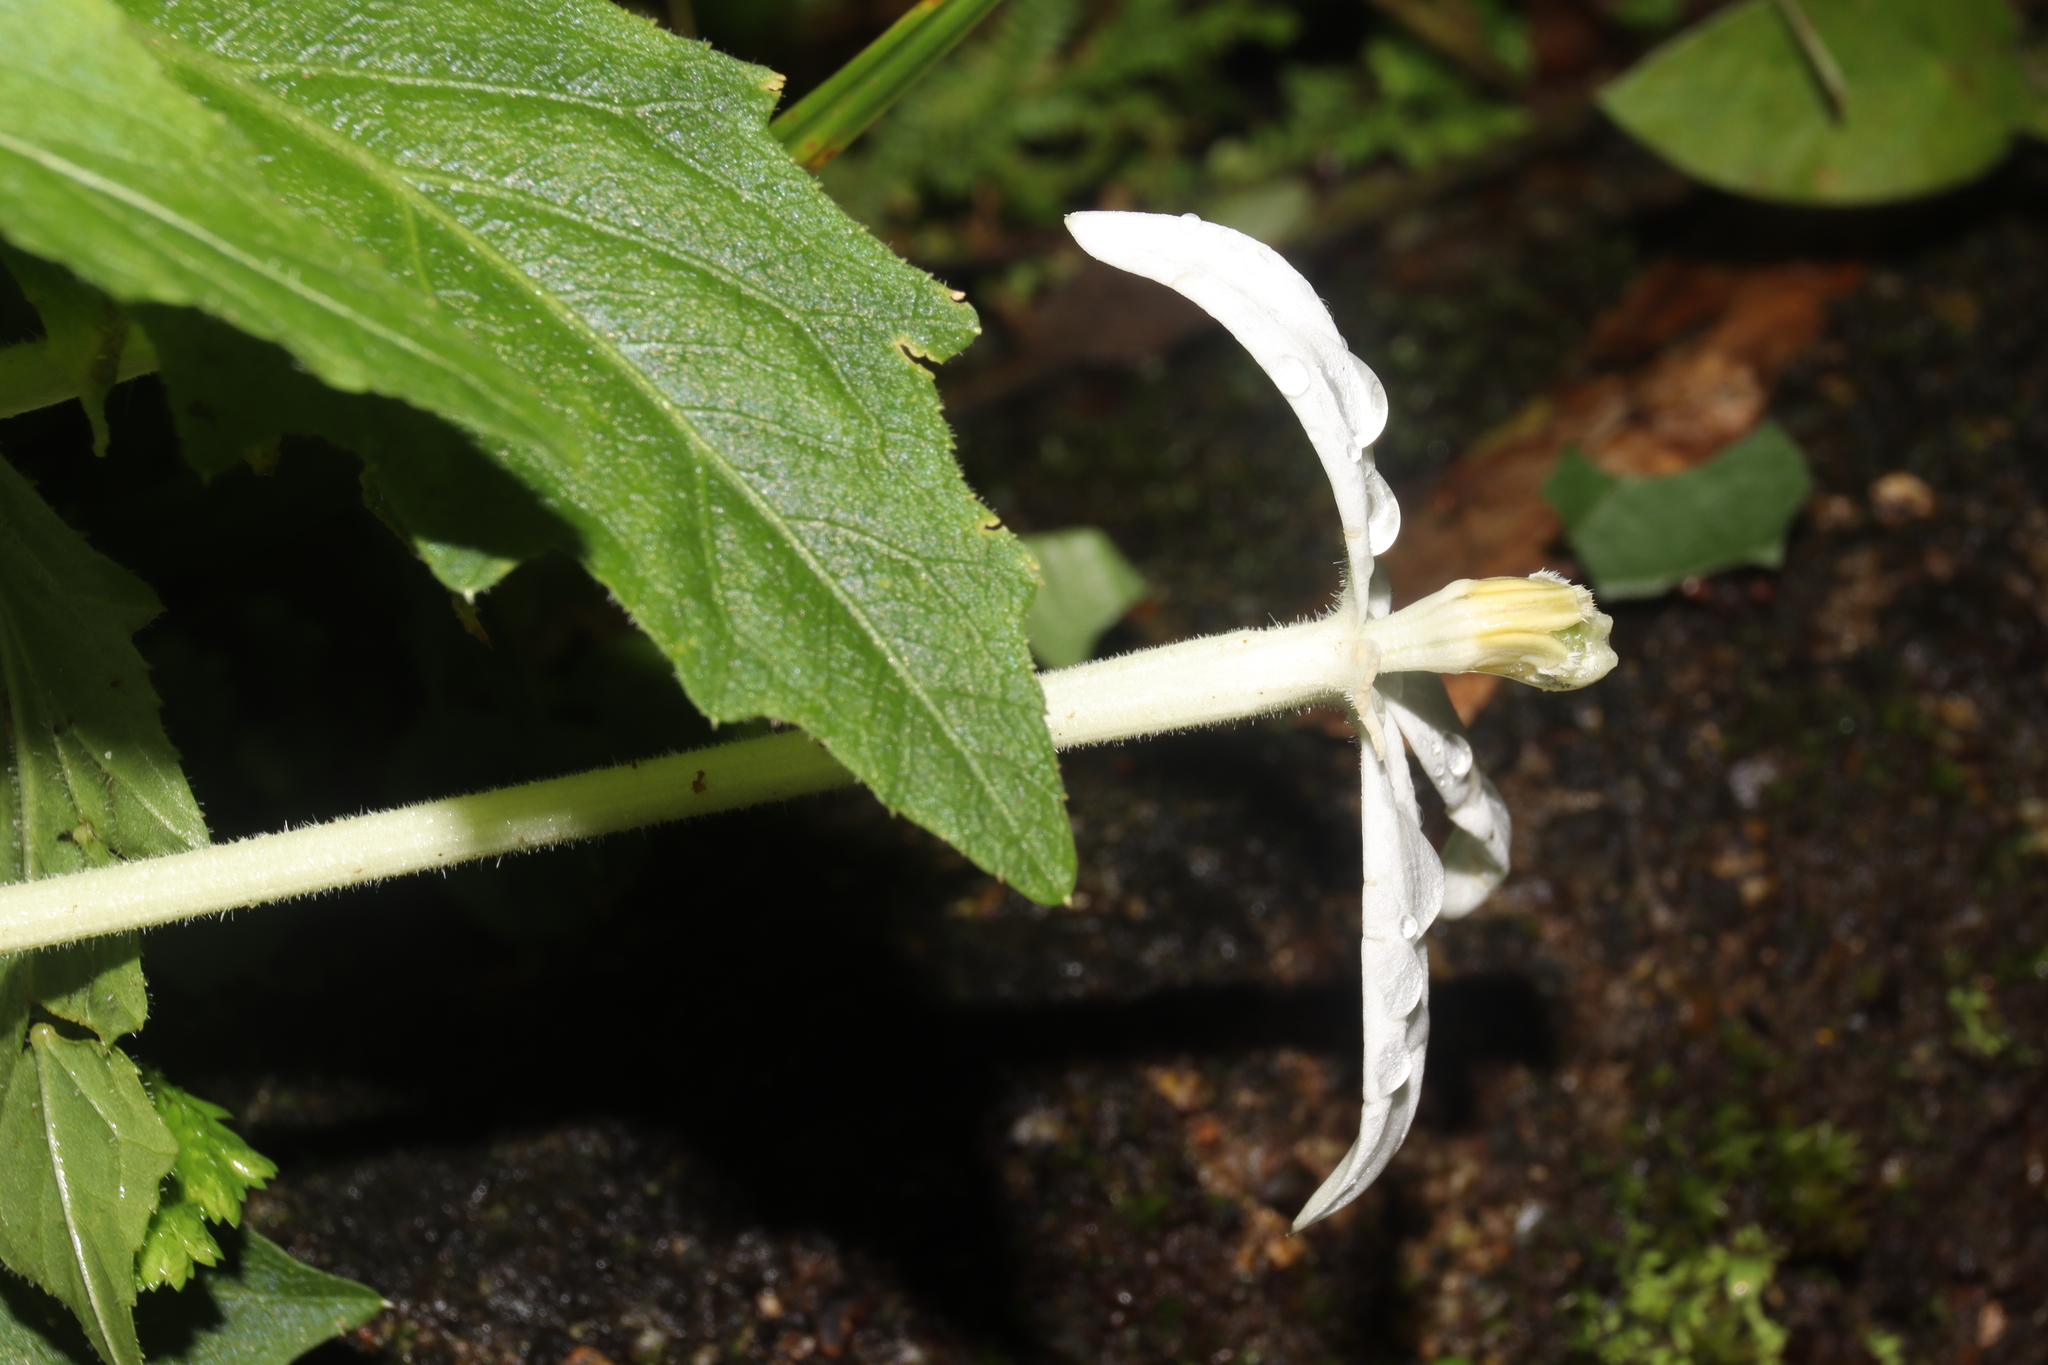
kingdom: Plantae
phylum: Tracheophyta
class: Magnoliopsida
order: Asterales
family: Campanulaceae
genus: Hippobroma
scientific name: Hippobroma longiflora
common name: Madamfate
